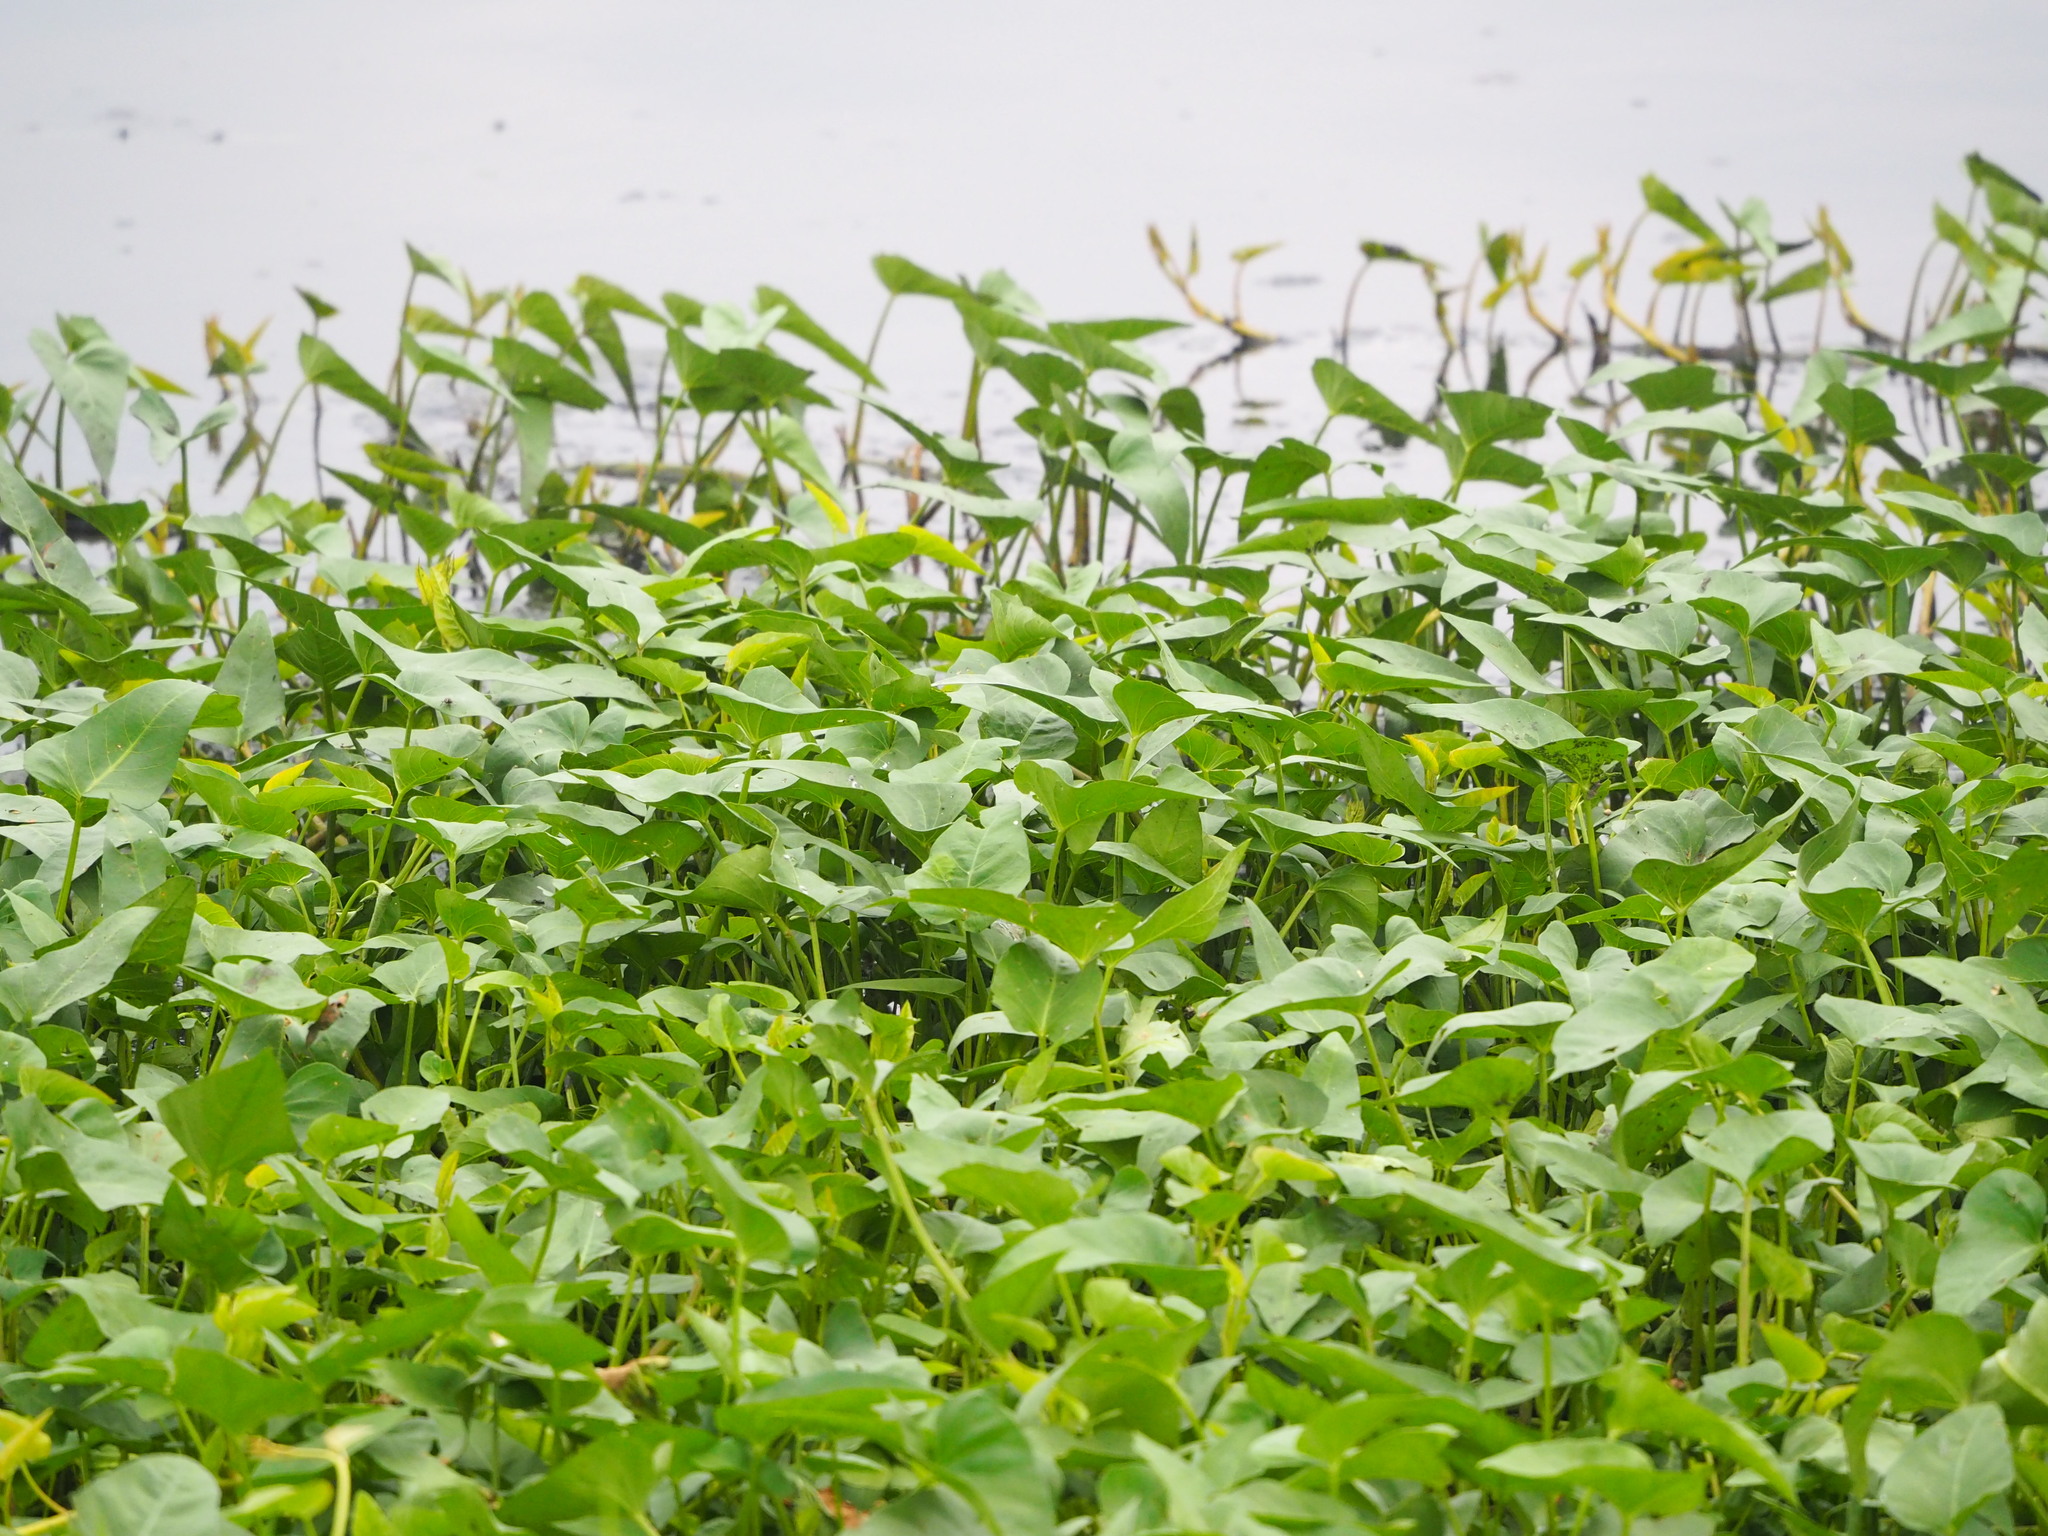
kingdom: Plantae
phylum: Tracheophyta
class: Magnoliopsida
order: Solanales
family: Convolvulaceae
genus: Ipomoea
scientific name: Ipomoea aquatica
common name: Swamp morning-glory
